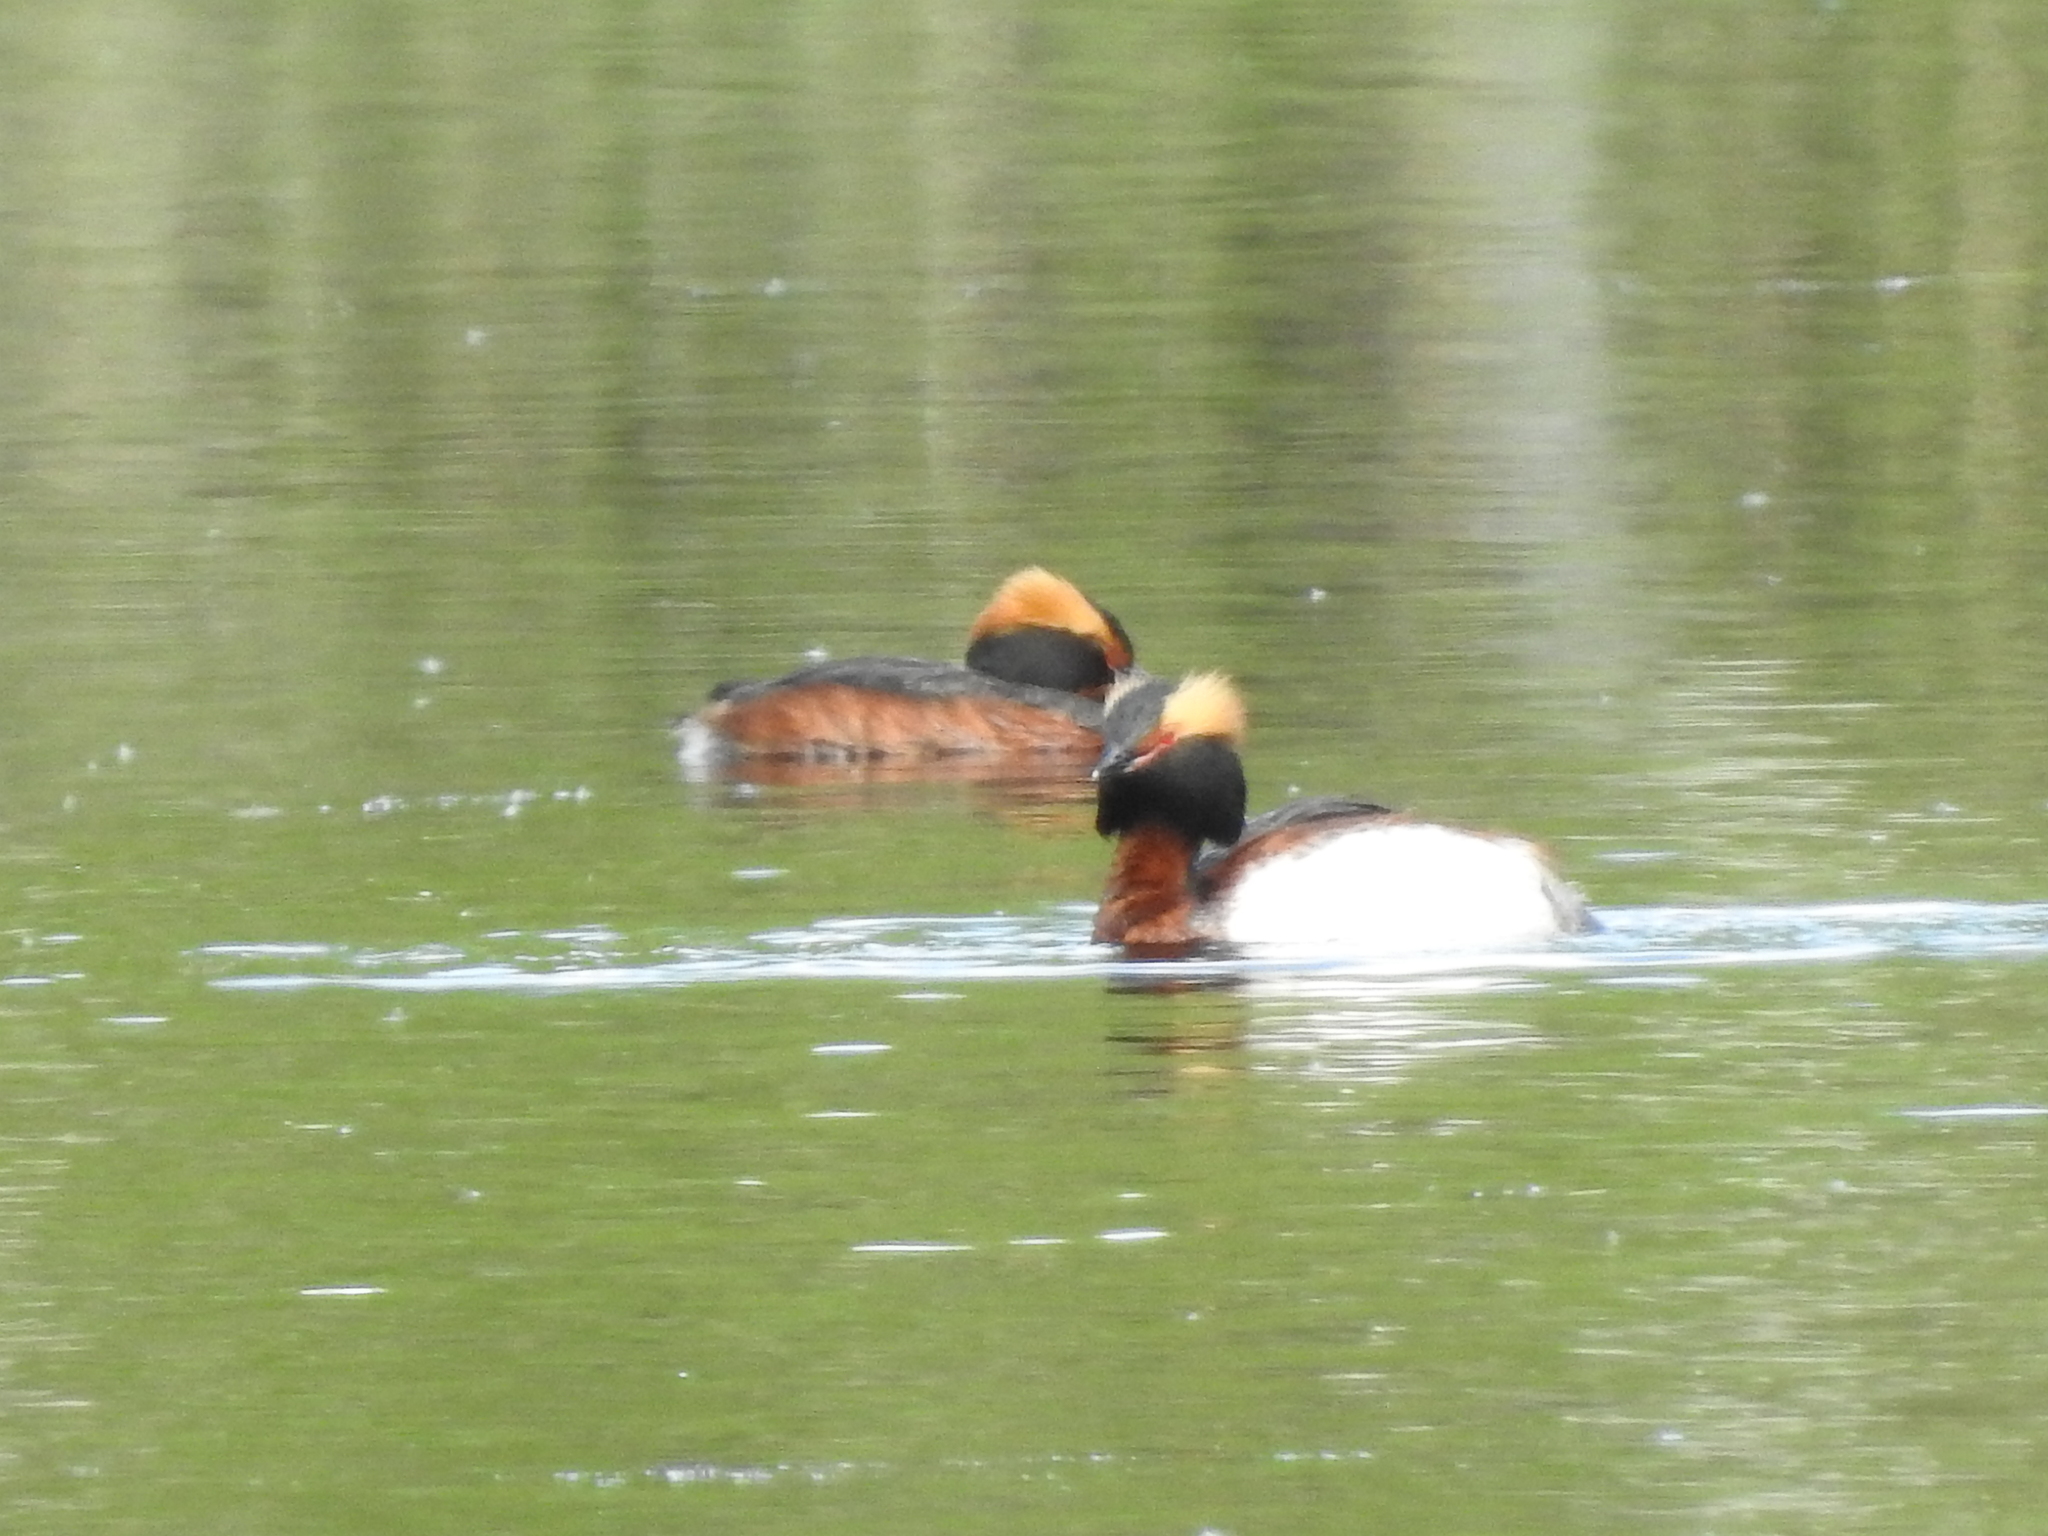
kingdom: Animalia
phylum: Chordata
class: Aves
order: Podicipediformes
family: Podicipedidae
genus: Podiceps
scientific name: Podiceps auritus
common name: Horned grebe
